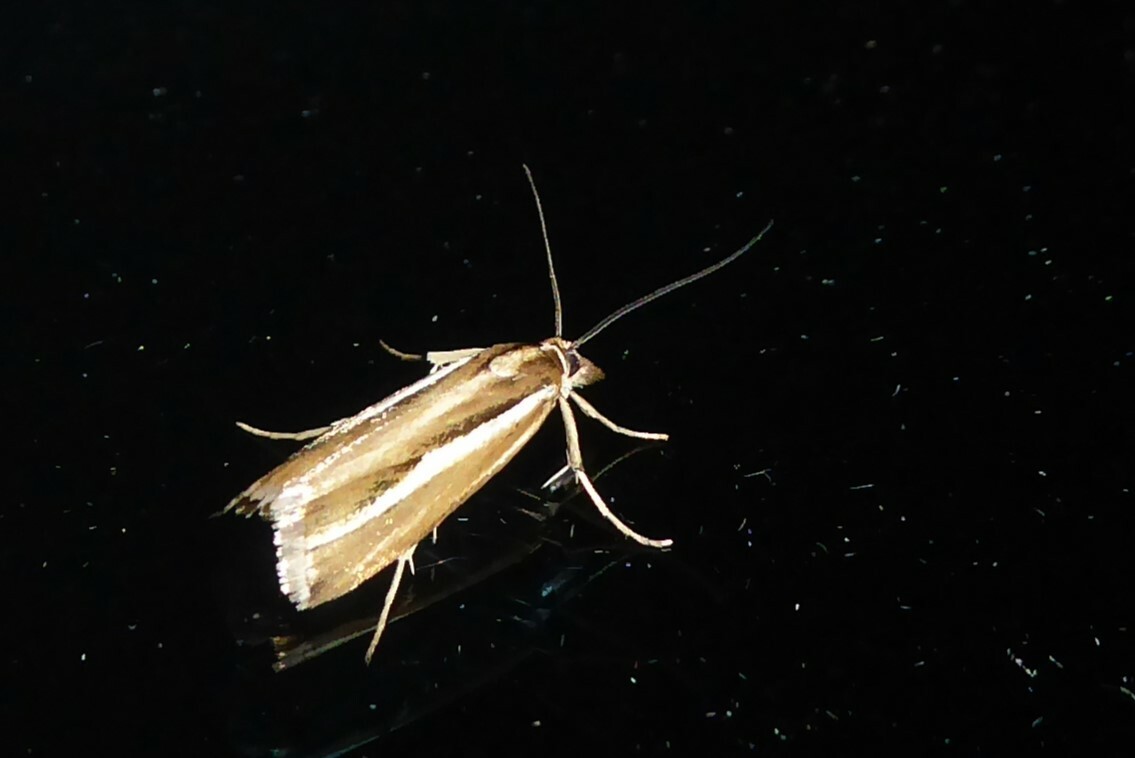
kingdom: Animalia
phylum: Arthropoda
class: Insecta
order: Lepidoptera
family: Crambidae
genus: Orocrambus
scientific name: Orocrambus aethonellus
